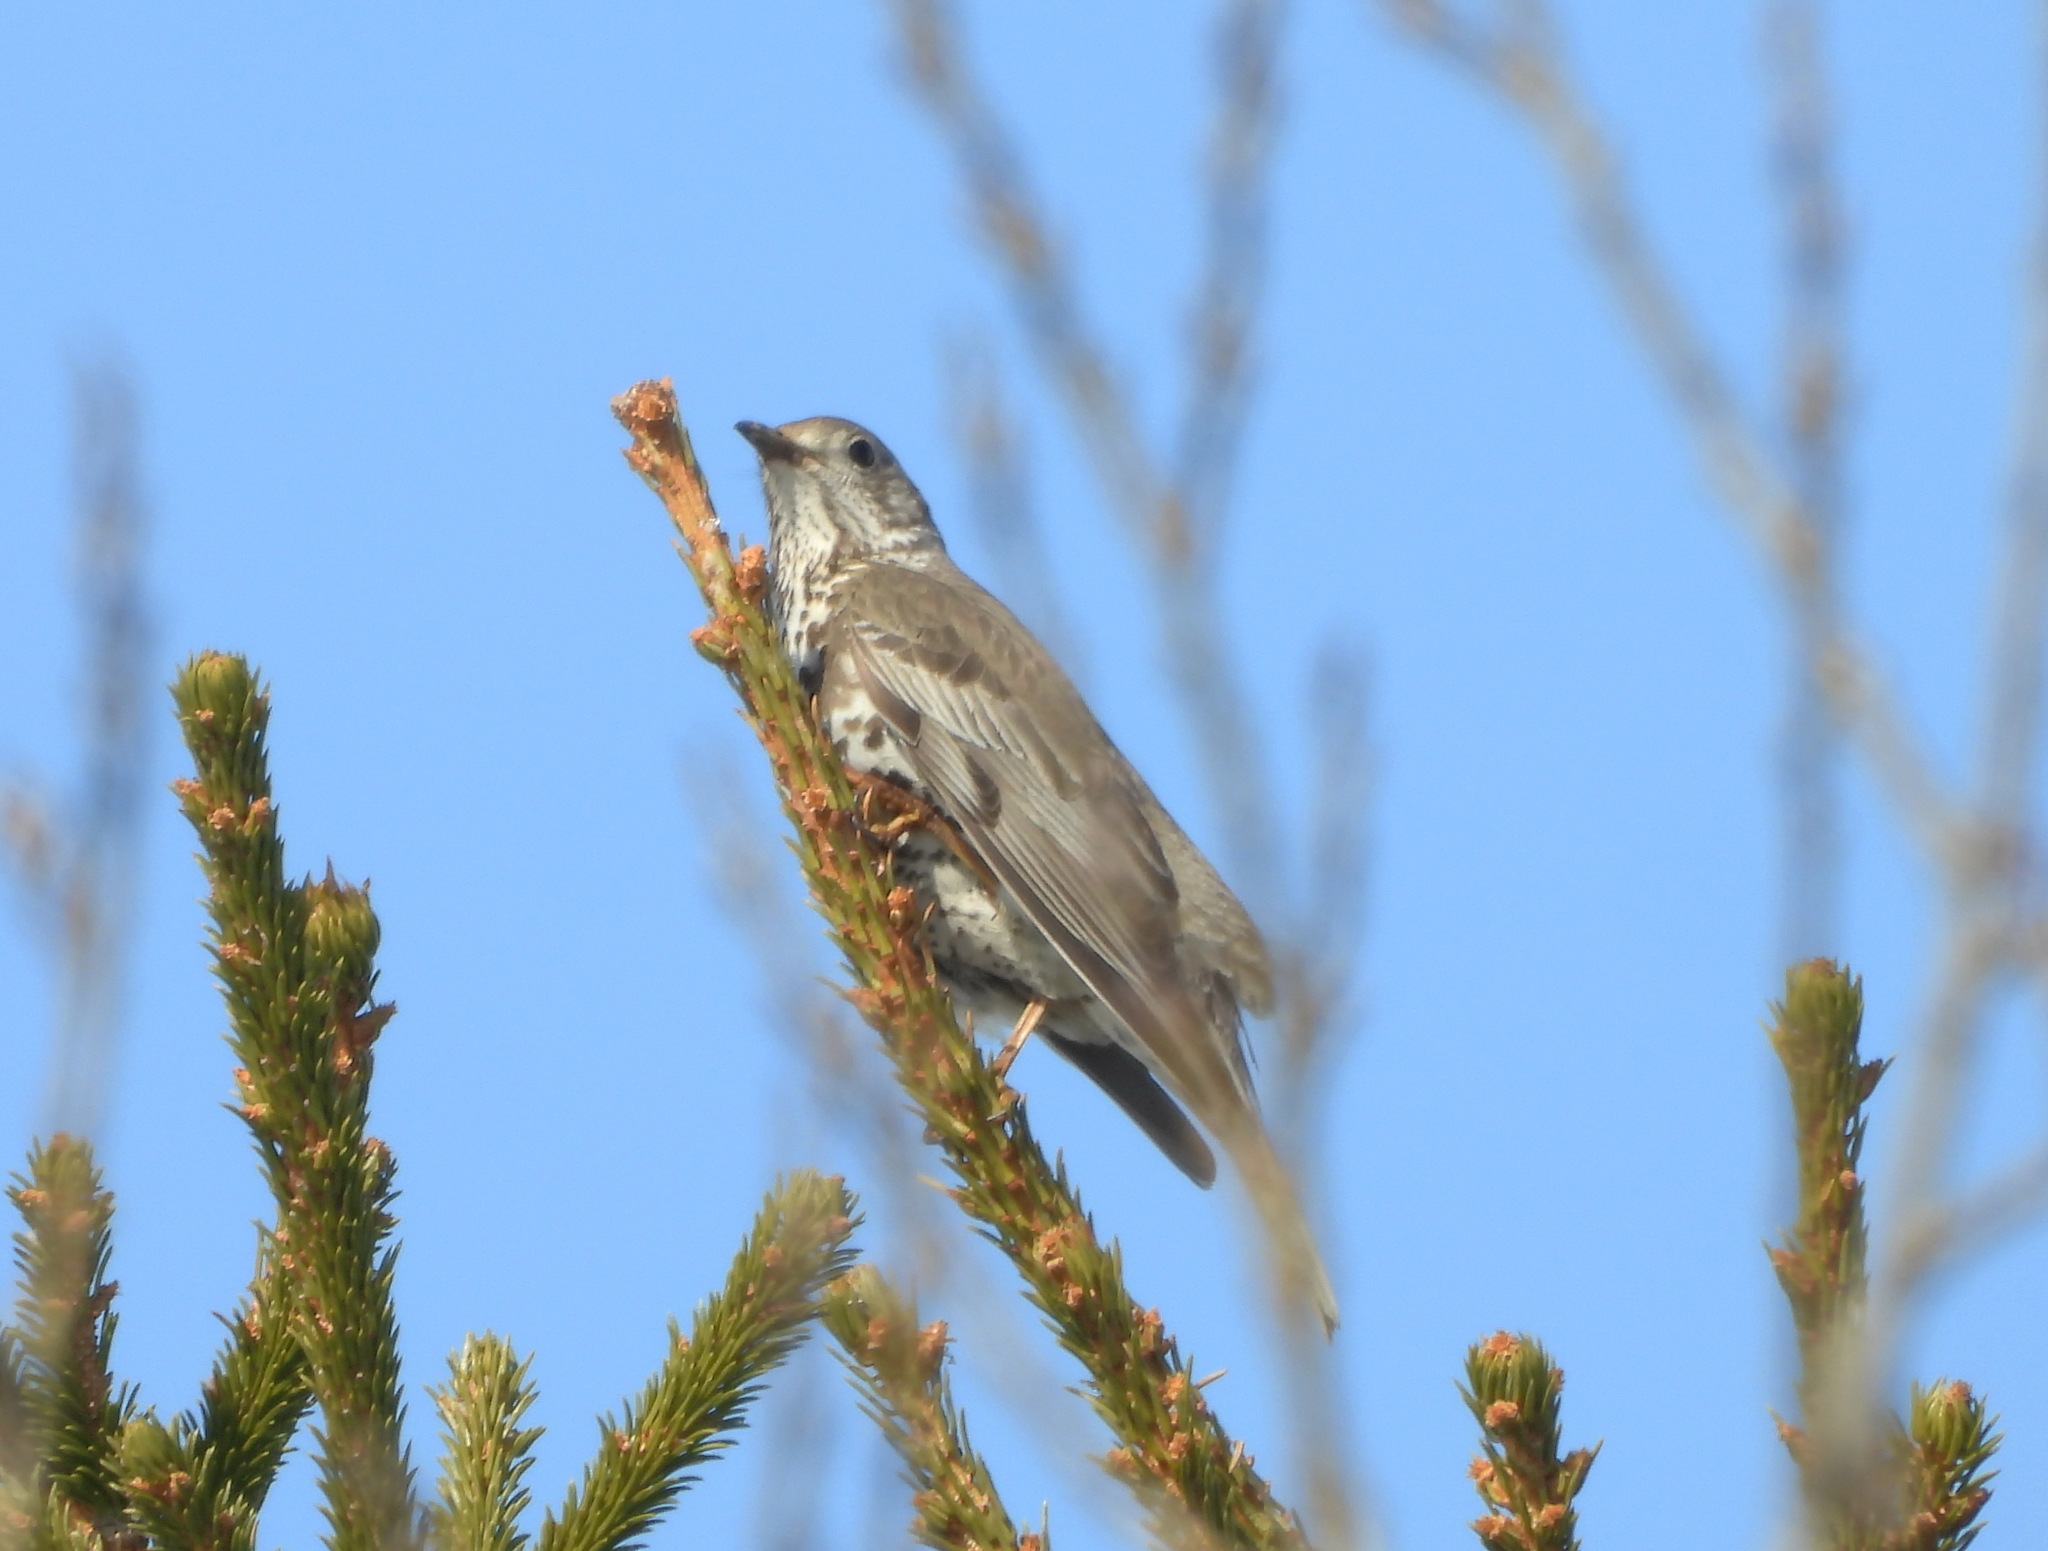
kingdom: Animalia
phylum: Chordata
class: Aves
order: Passeriformes
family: Turdidae
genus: Turdus
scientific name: Turdus viscivorus
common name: Mistle thrush
